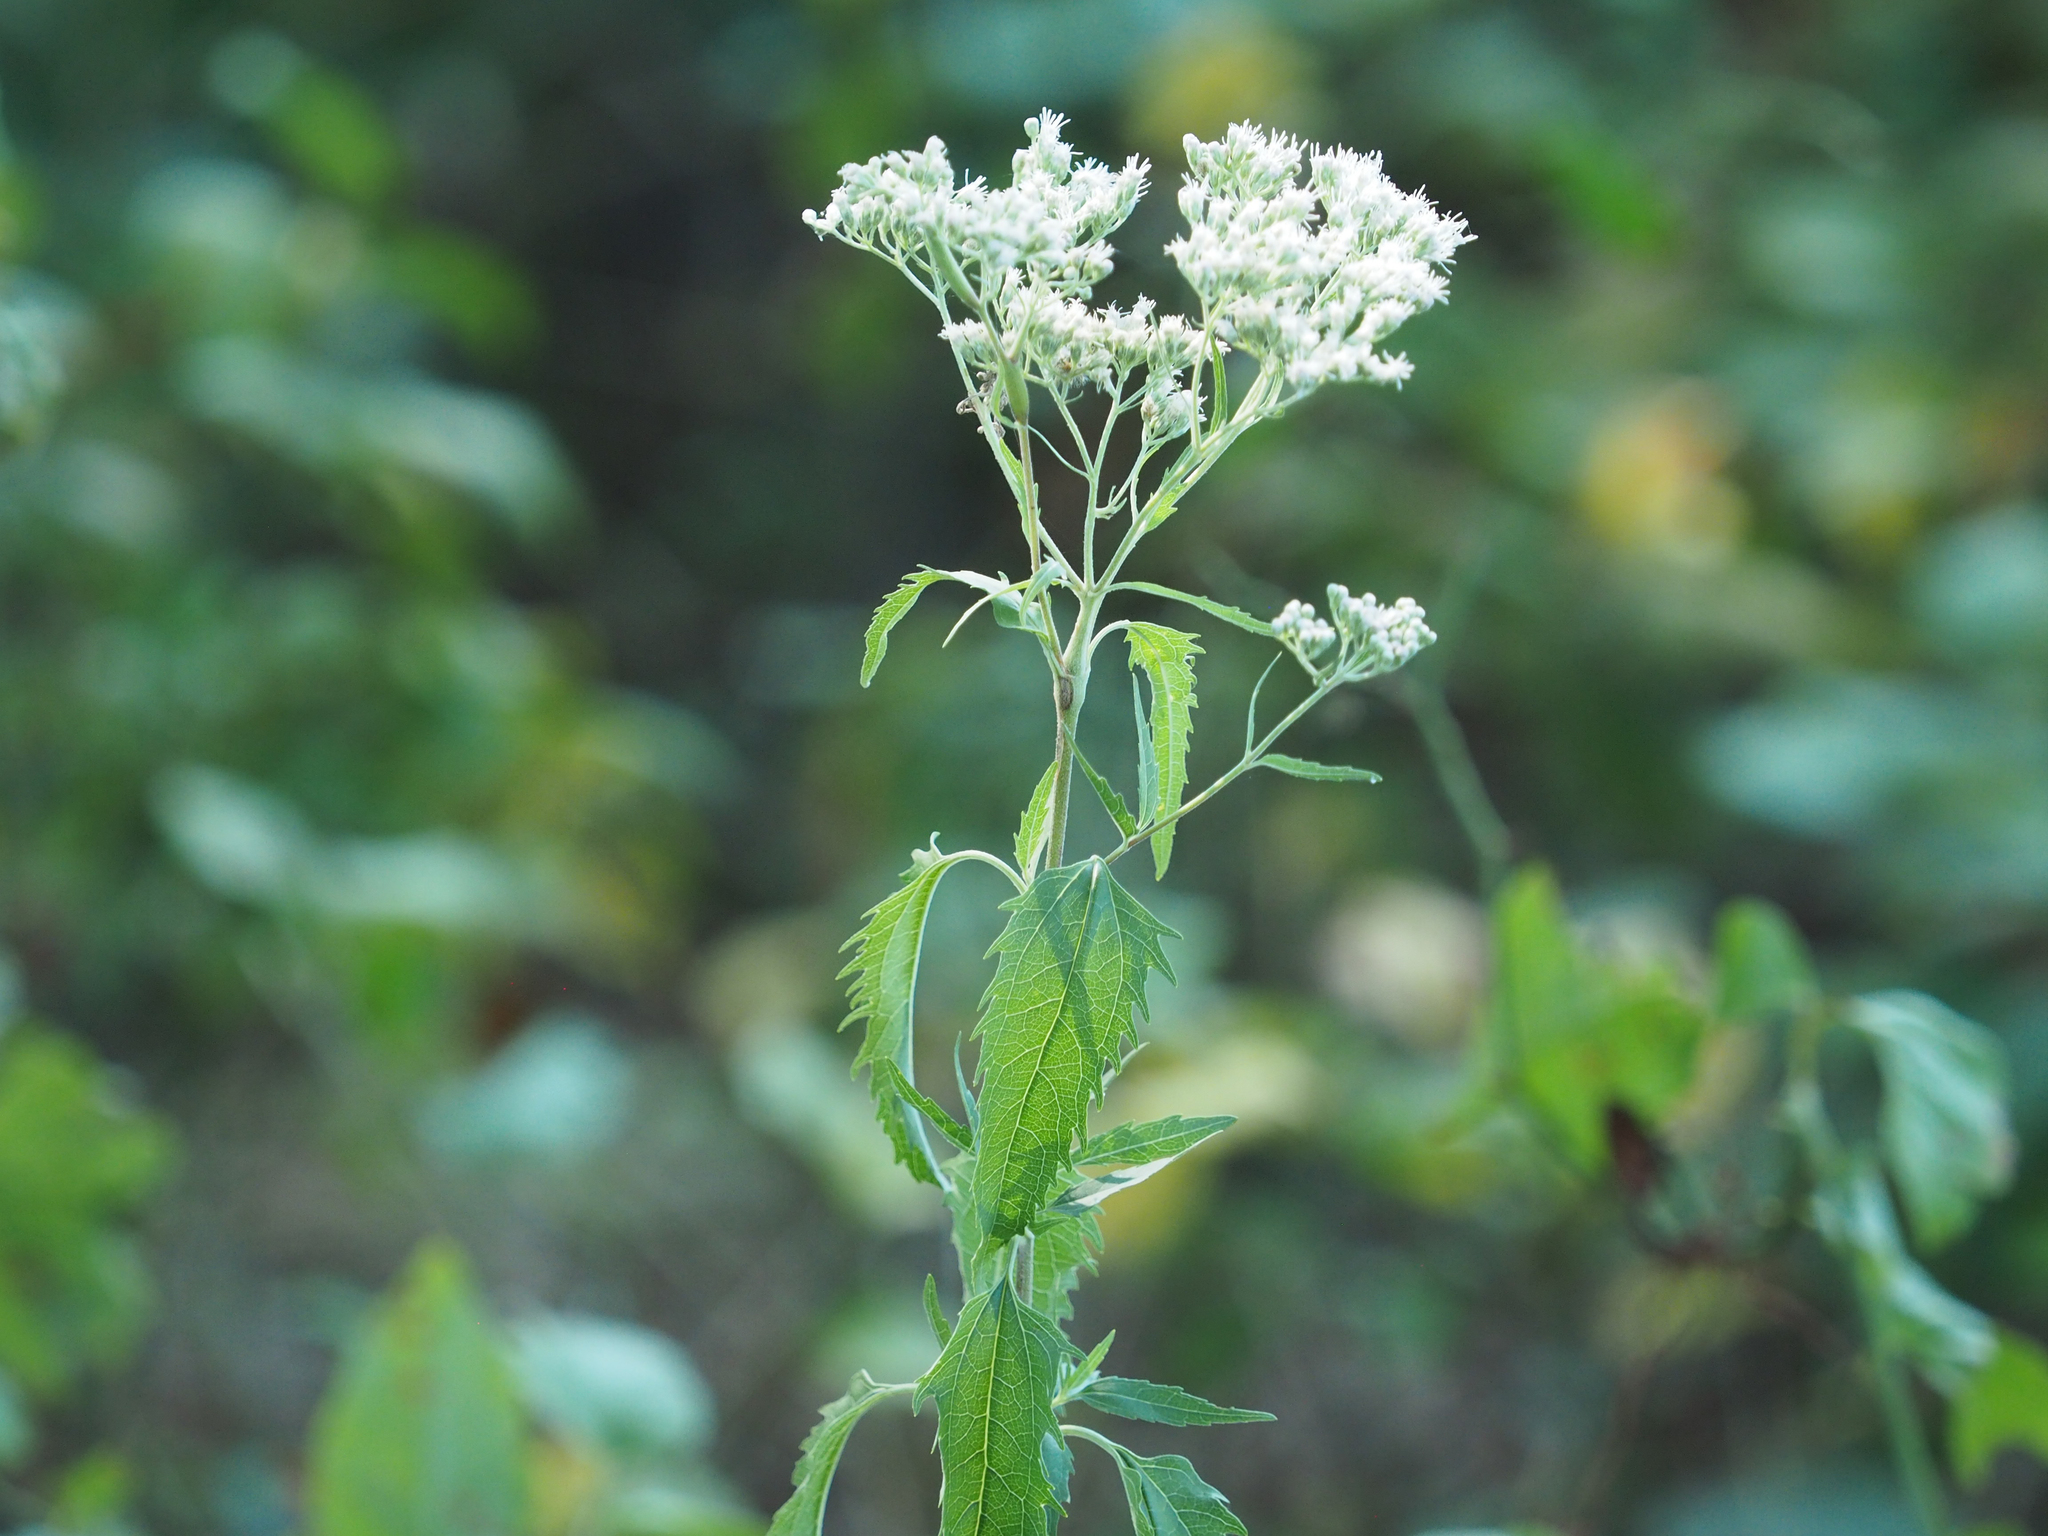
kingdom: Plantae
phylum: Tracheophyta
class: Magnoliopsida
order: Asterales
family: Asteraceae
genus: Eupatorium
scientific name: Eupatorium serotinum
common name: Late boneset
